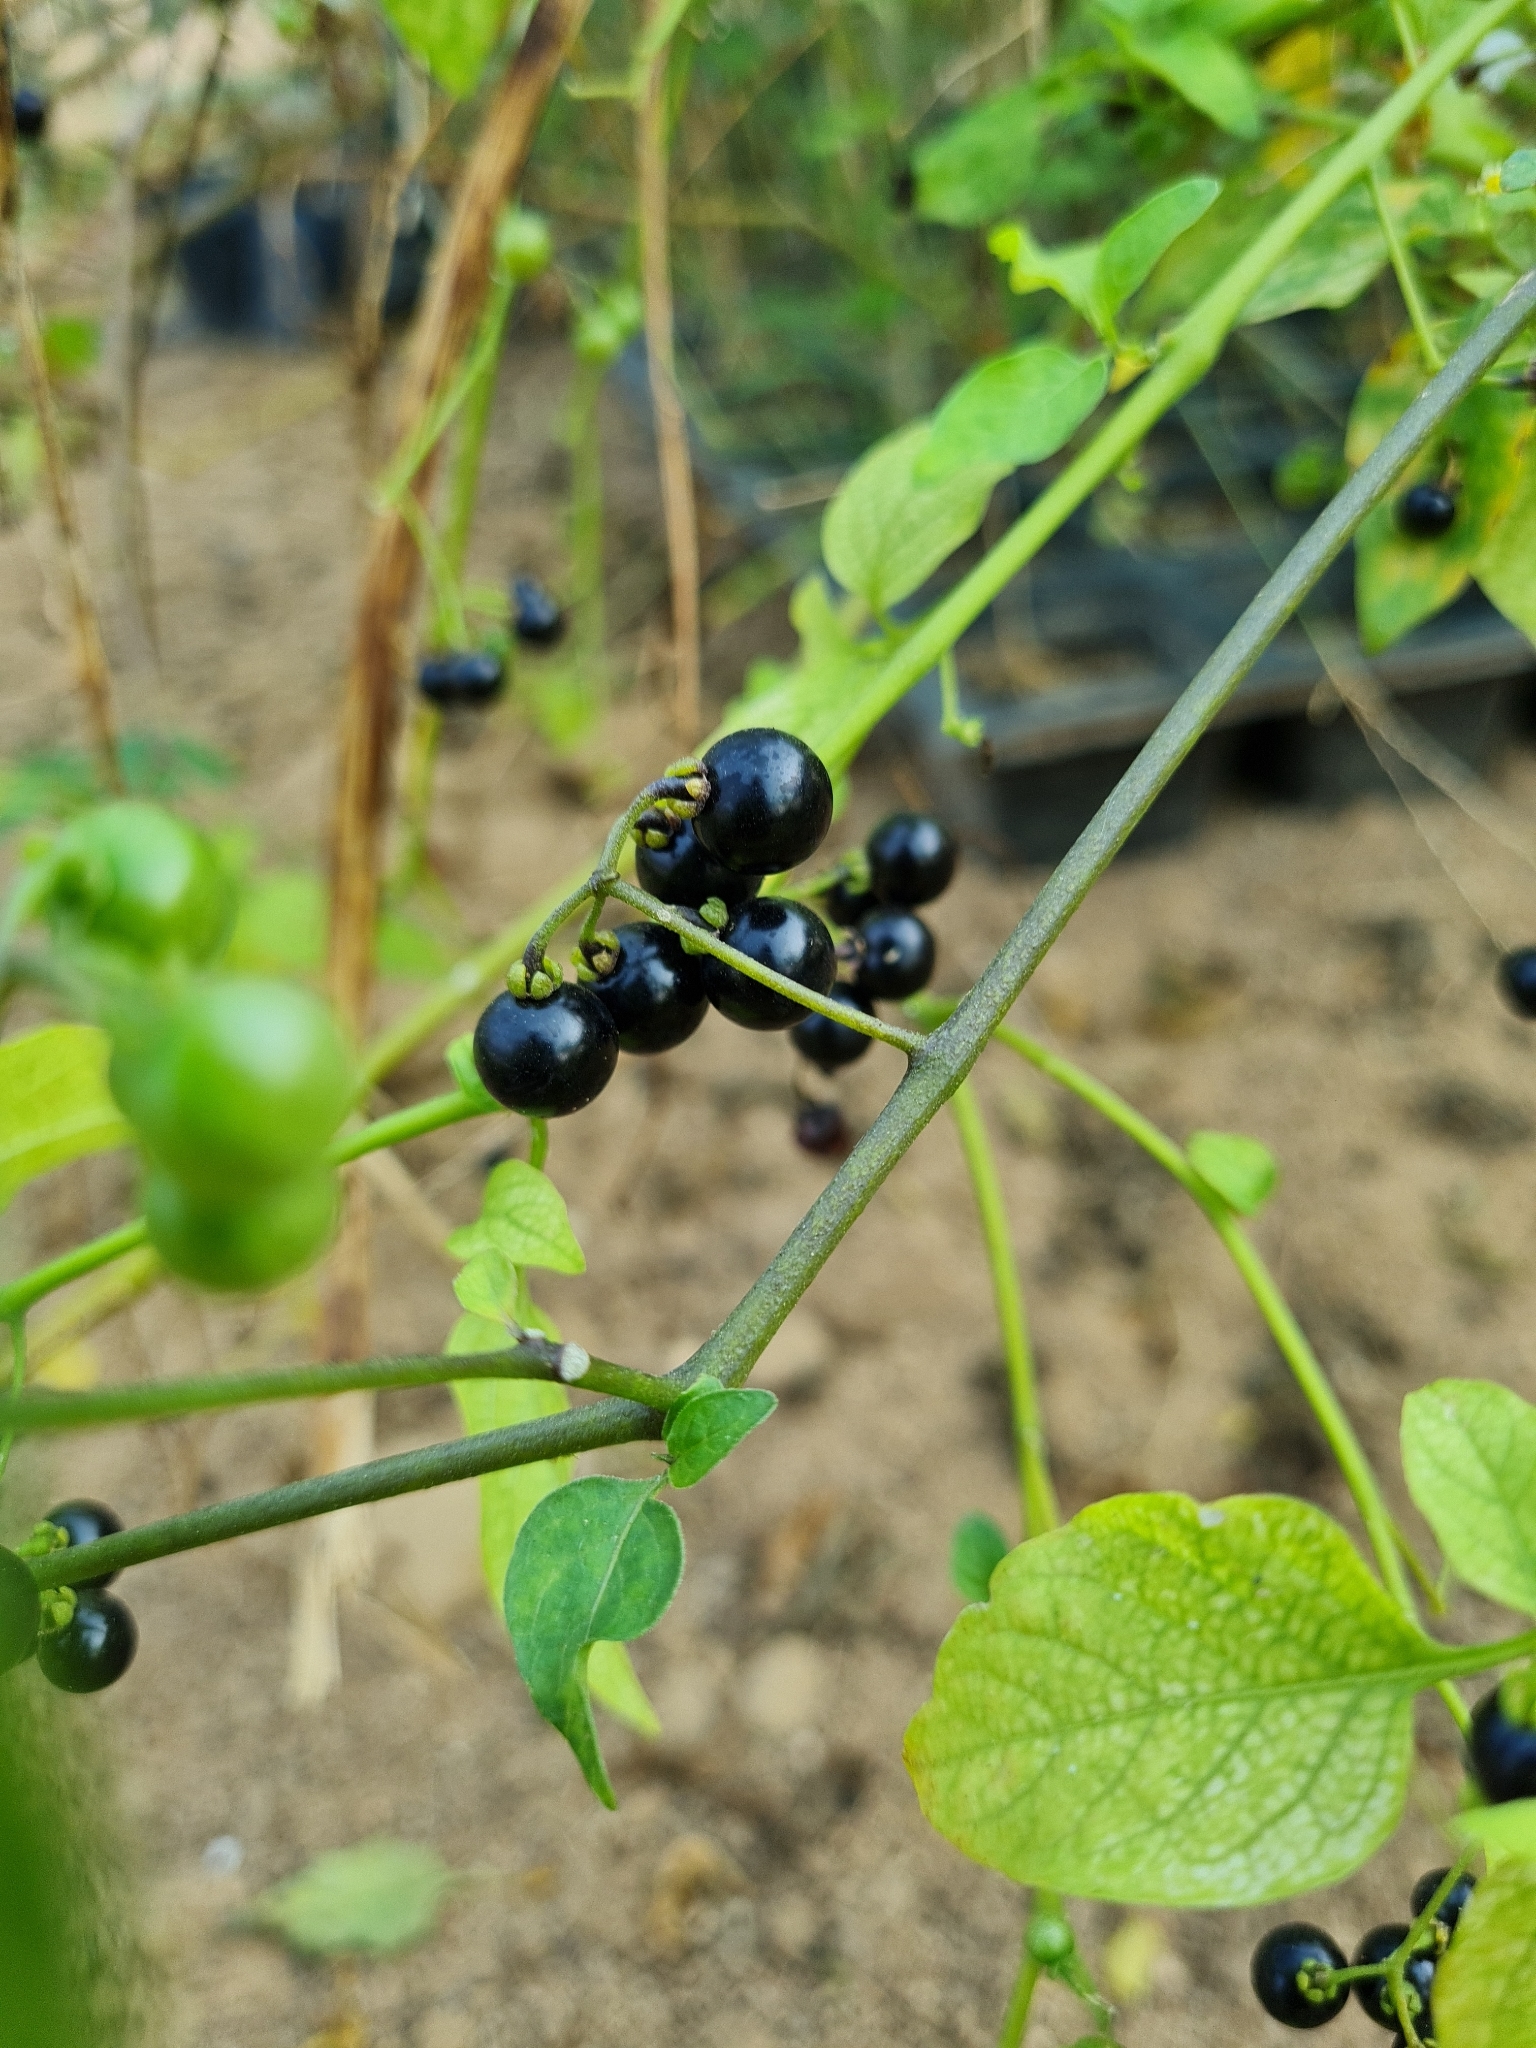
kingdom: Plantae
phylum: Tracheophyta
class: Magnoliopsida
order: Solanales
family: Solanaceae
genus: Solanum
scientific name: Solanum americanum
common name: American black nightshade
